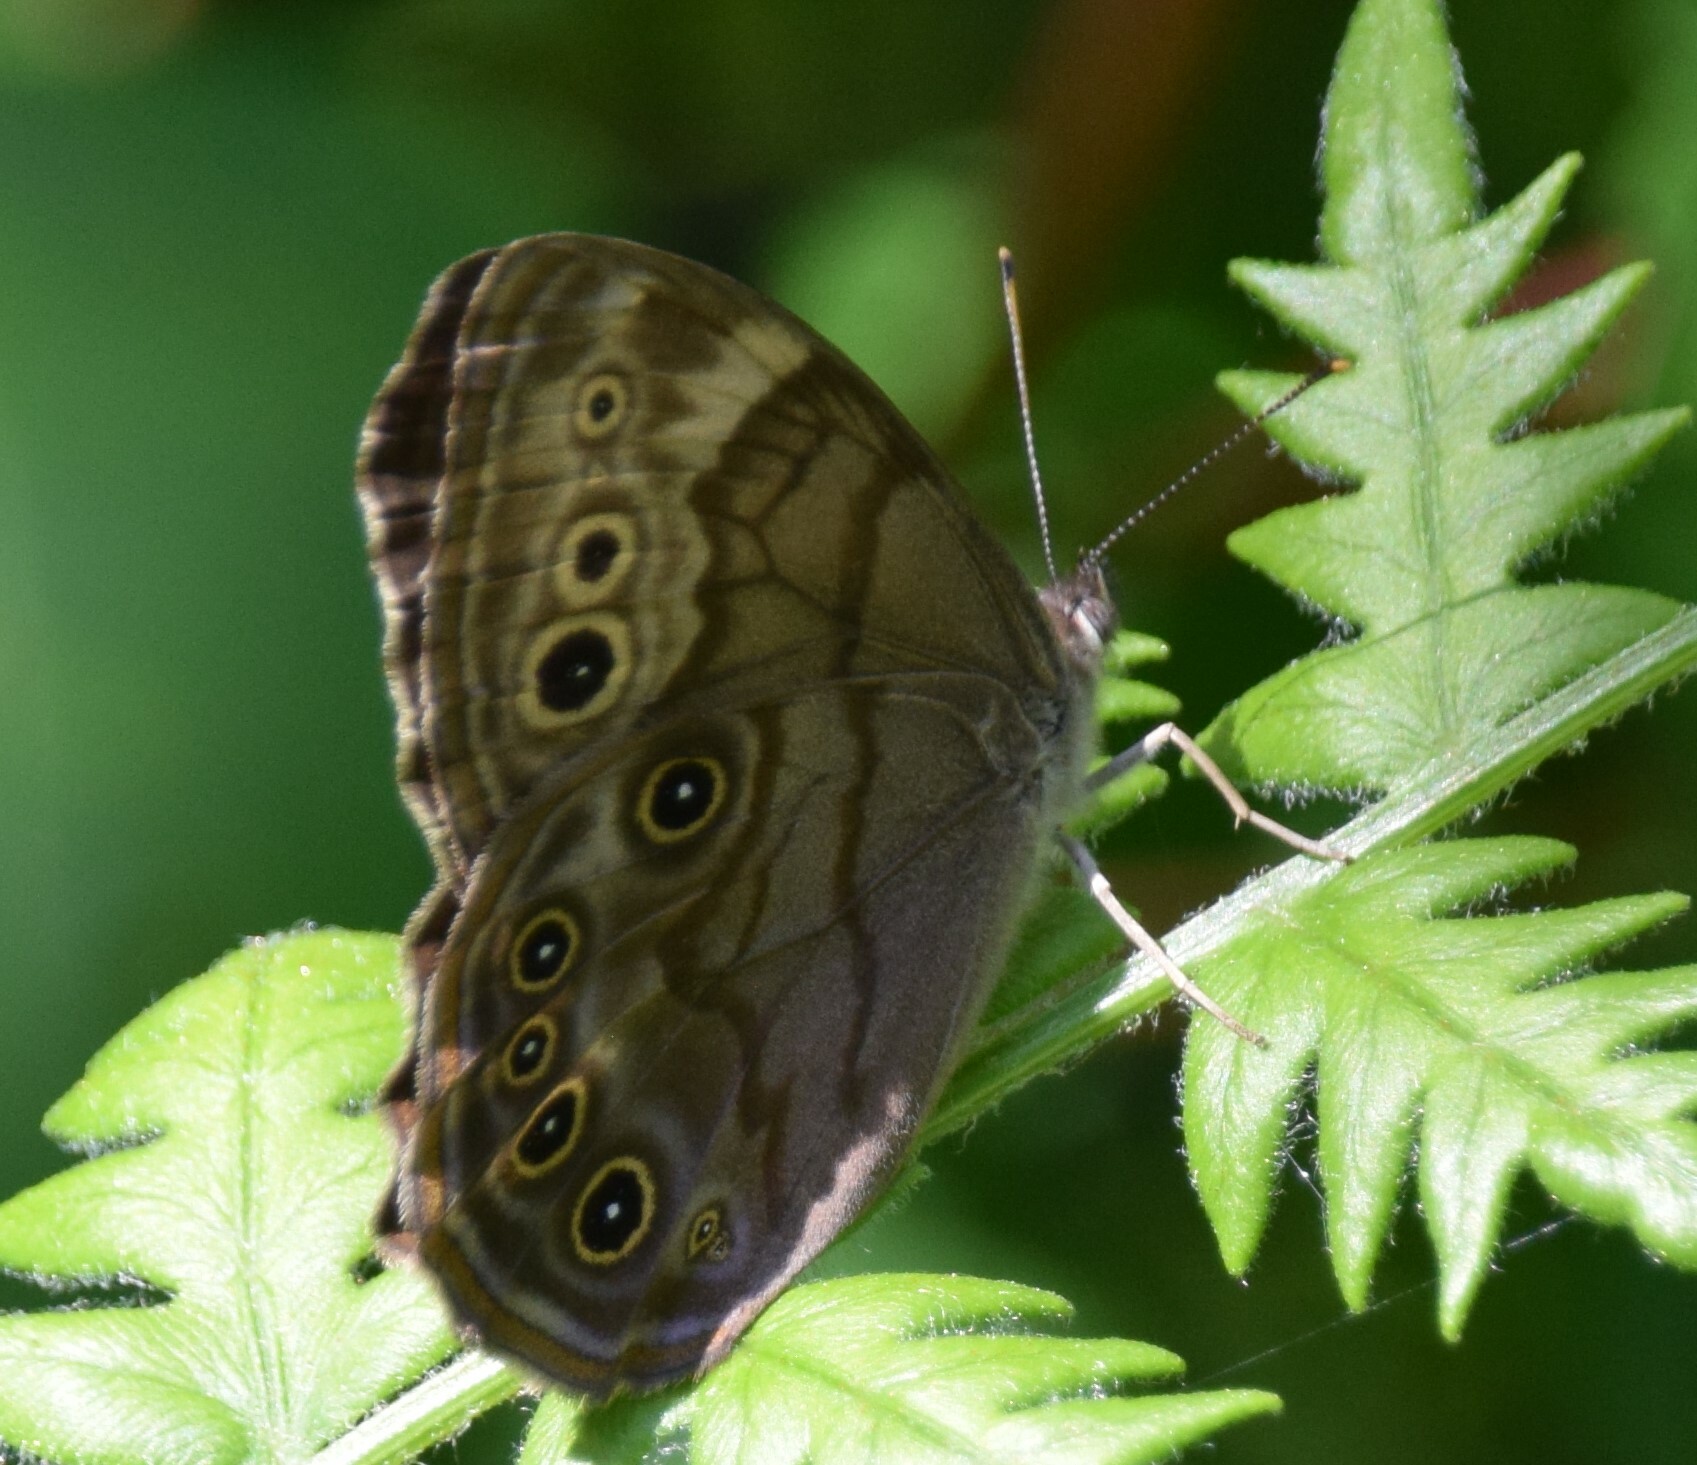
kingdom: Animalia
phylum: Arthropoda
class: Insecta
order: Lepidoptera
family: Nymphalidae
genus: Lethe
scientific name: Lethe anthedon
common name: Northern pearly-eye
